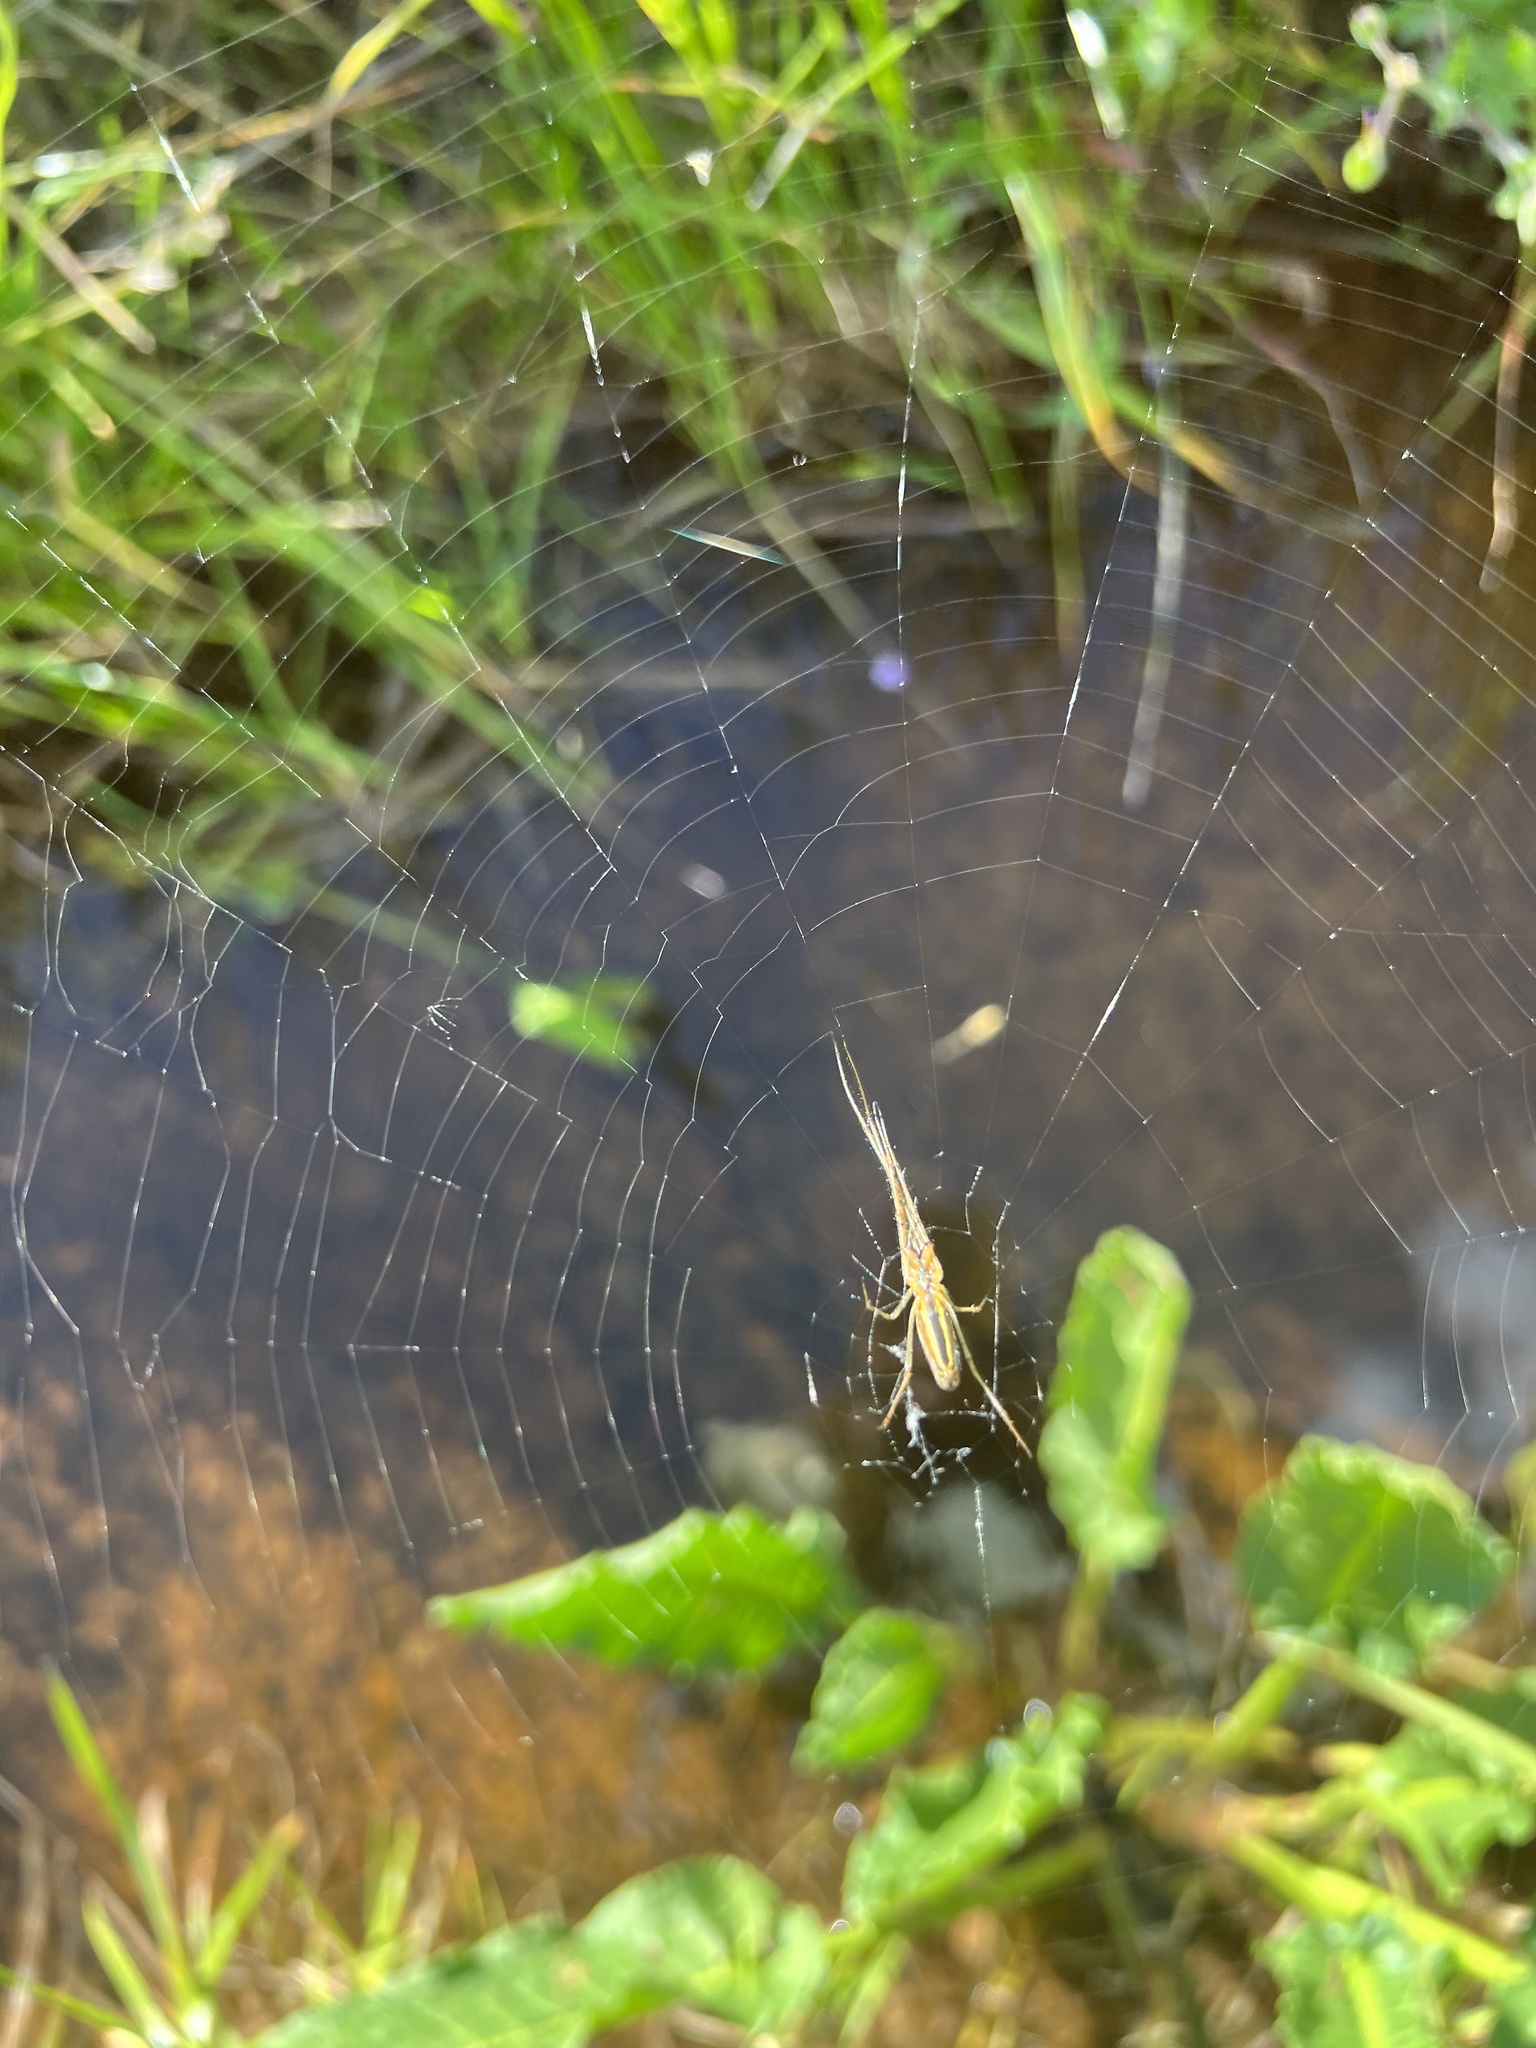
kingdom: Animalia
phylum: Arthropoda
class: Arachnida
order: Araneae
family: Tetragnathidae
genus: Tetragnatha
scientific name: Tetragnatha
